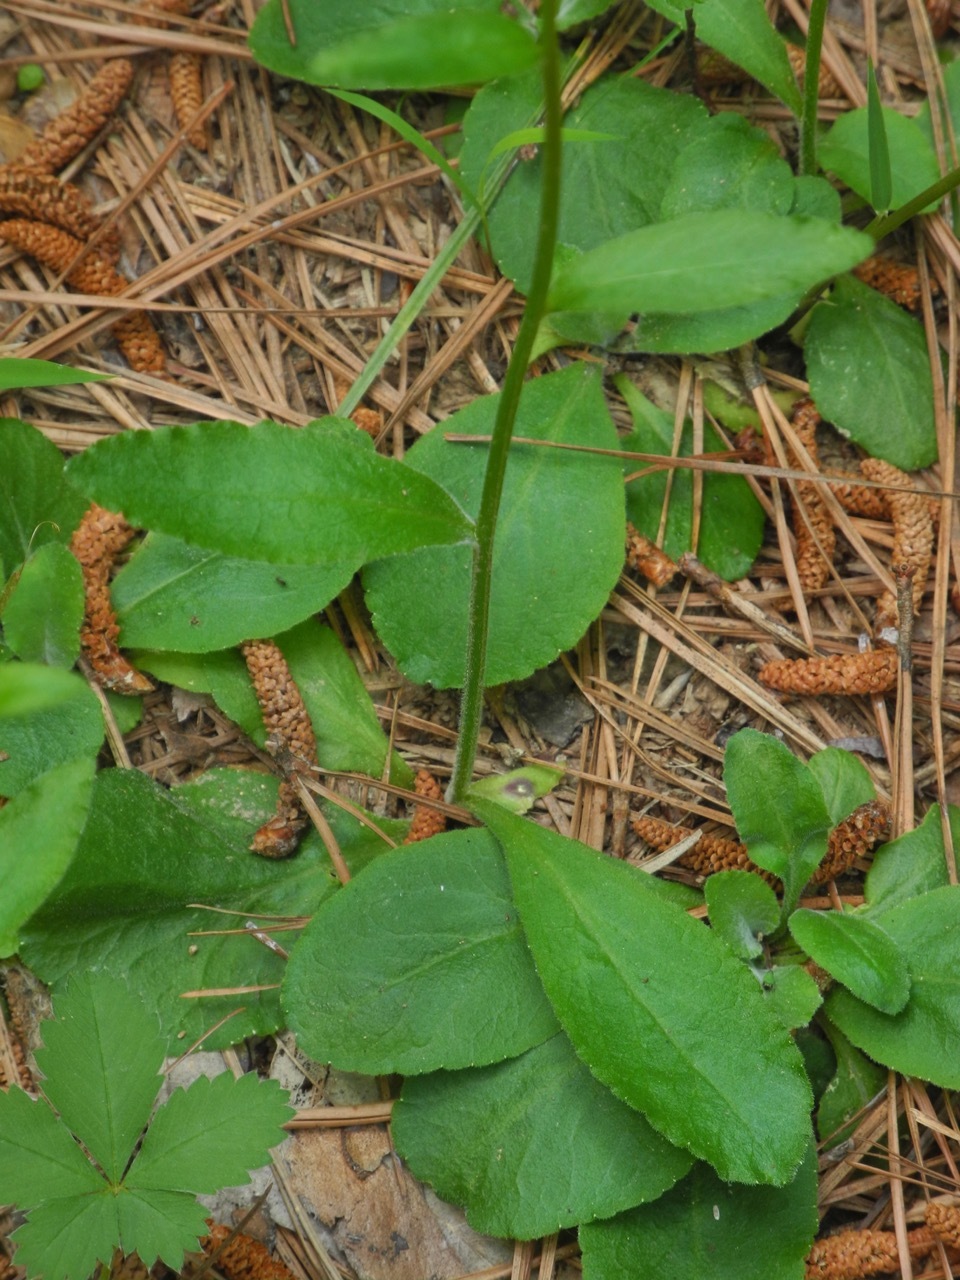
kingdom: Plantae
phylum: Tracheophyta
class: Magnoliopsida
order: Asterales
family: Asteraceae
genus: Elephantopus
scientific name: Elephantopus carolinianus
